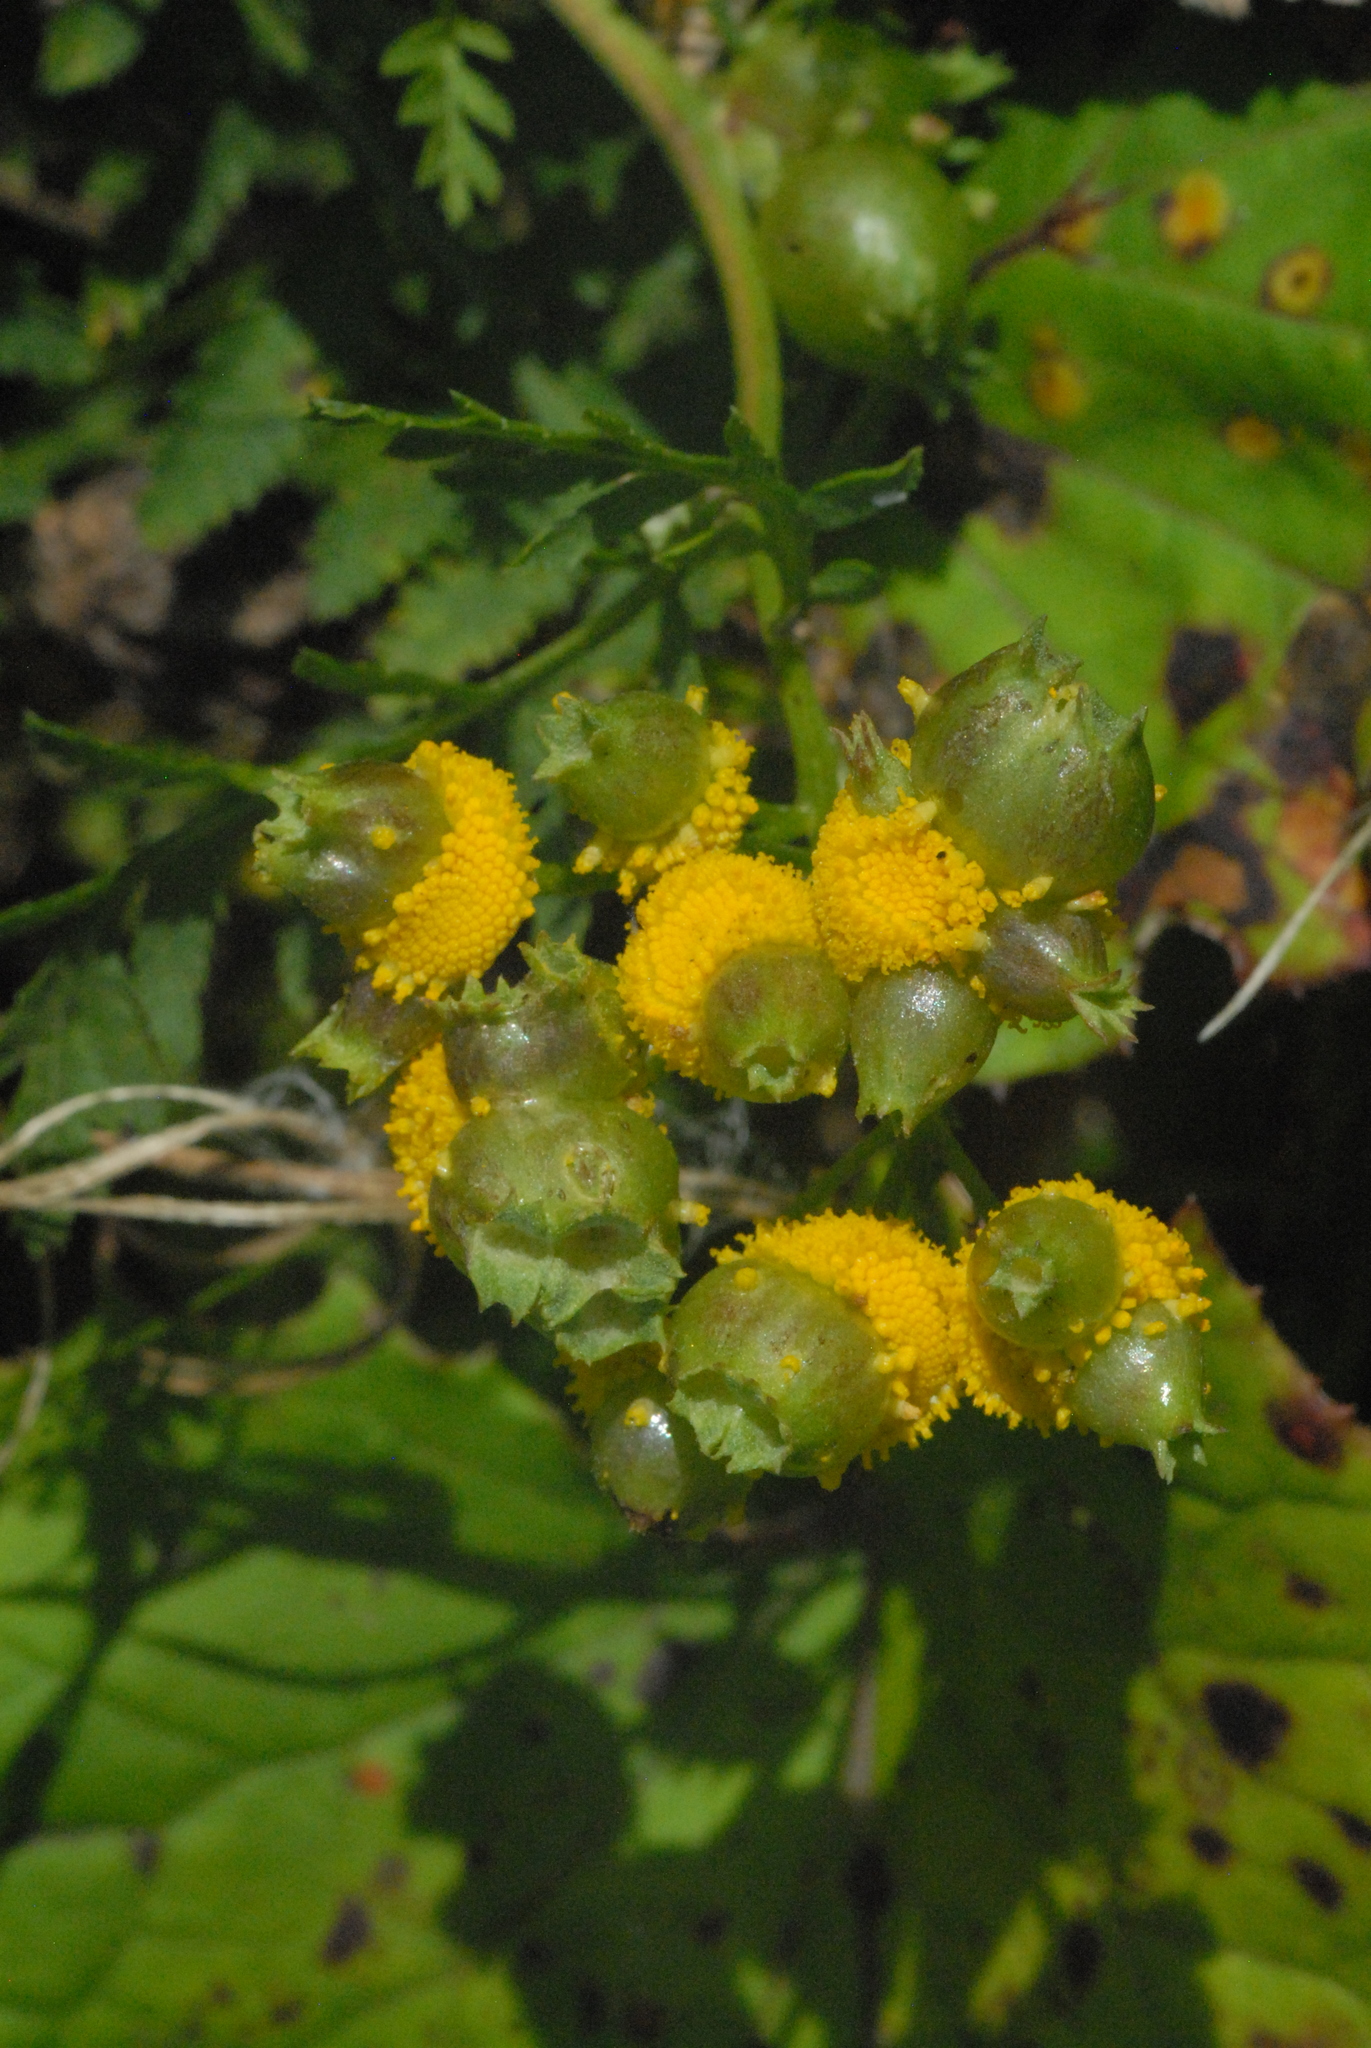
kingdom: Plantae
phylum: Tracheophyta
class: Magnoliopsida
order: Asterales
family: Asteraceae
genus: Tanacetum
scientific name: Tanacetum vulgare
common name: Common tansy
